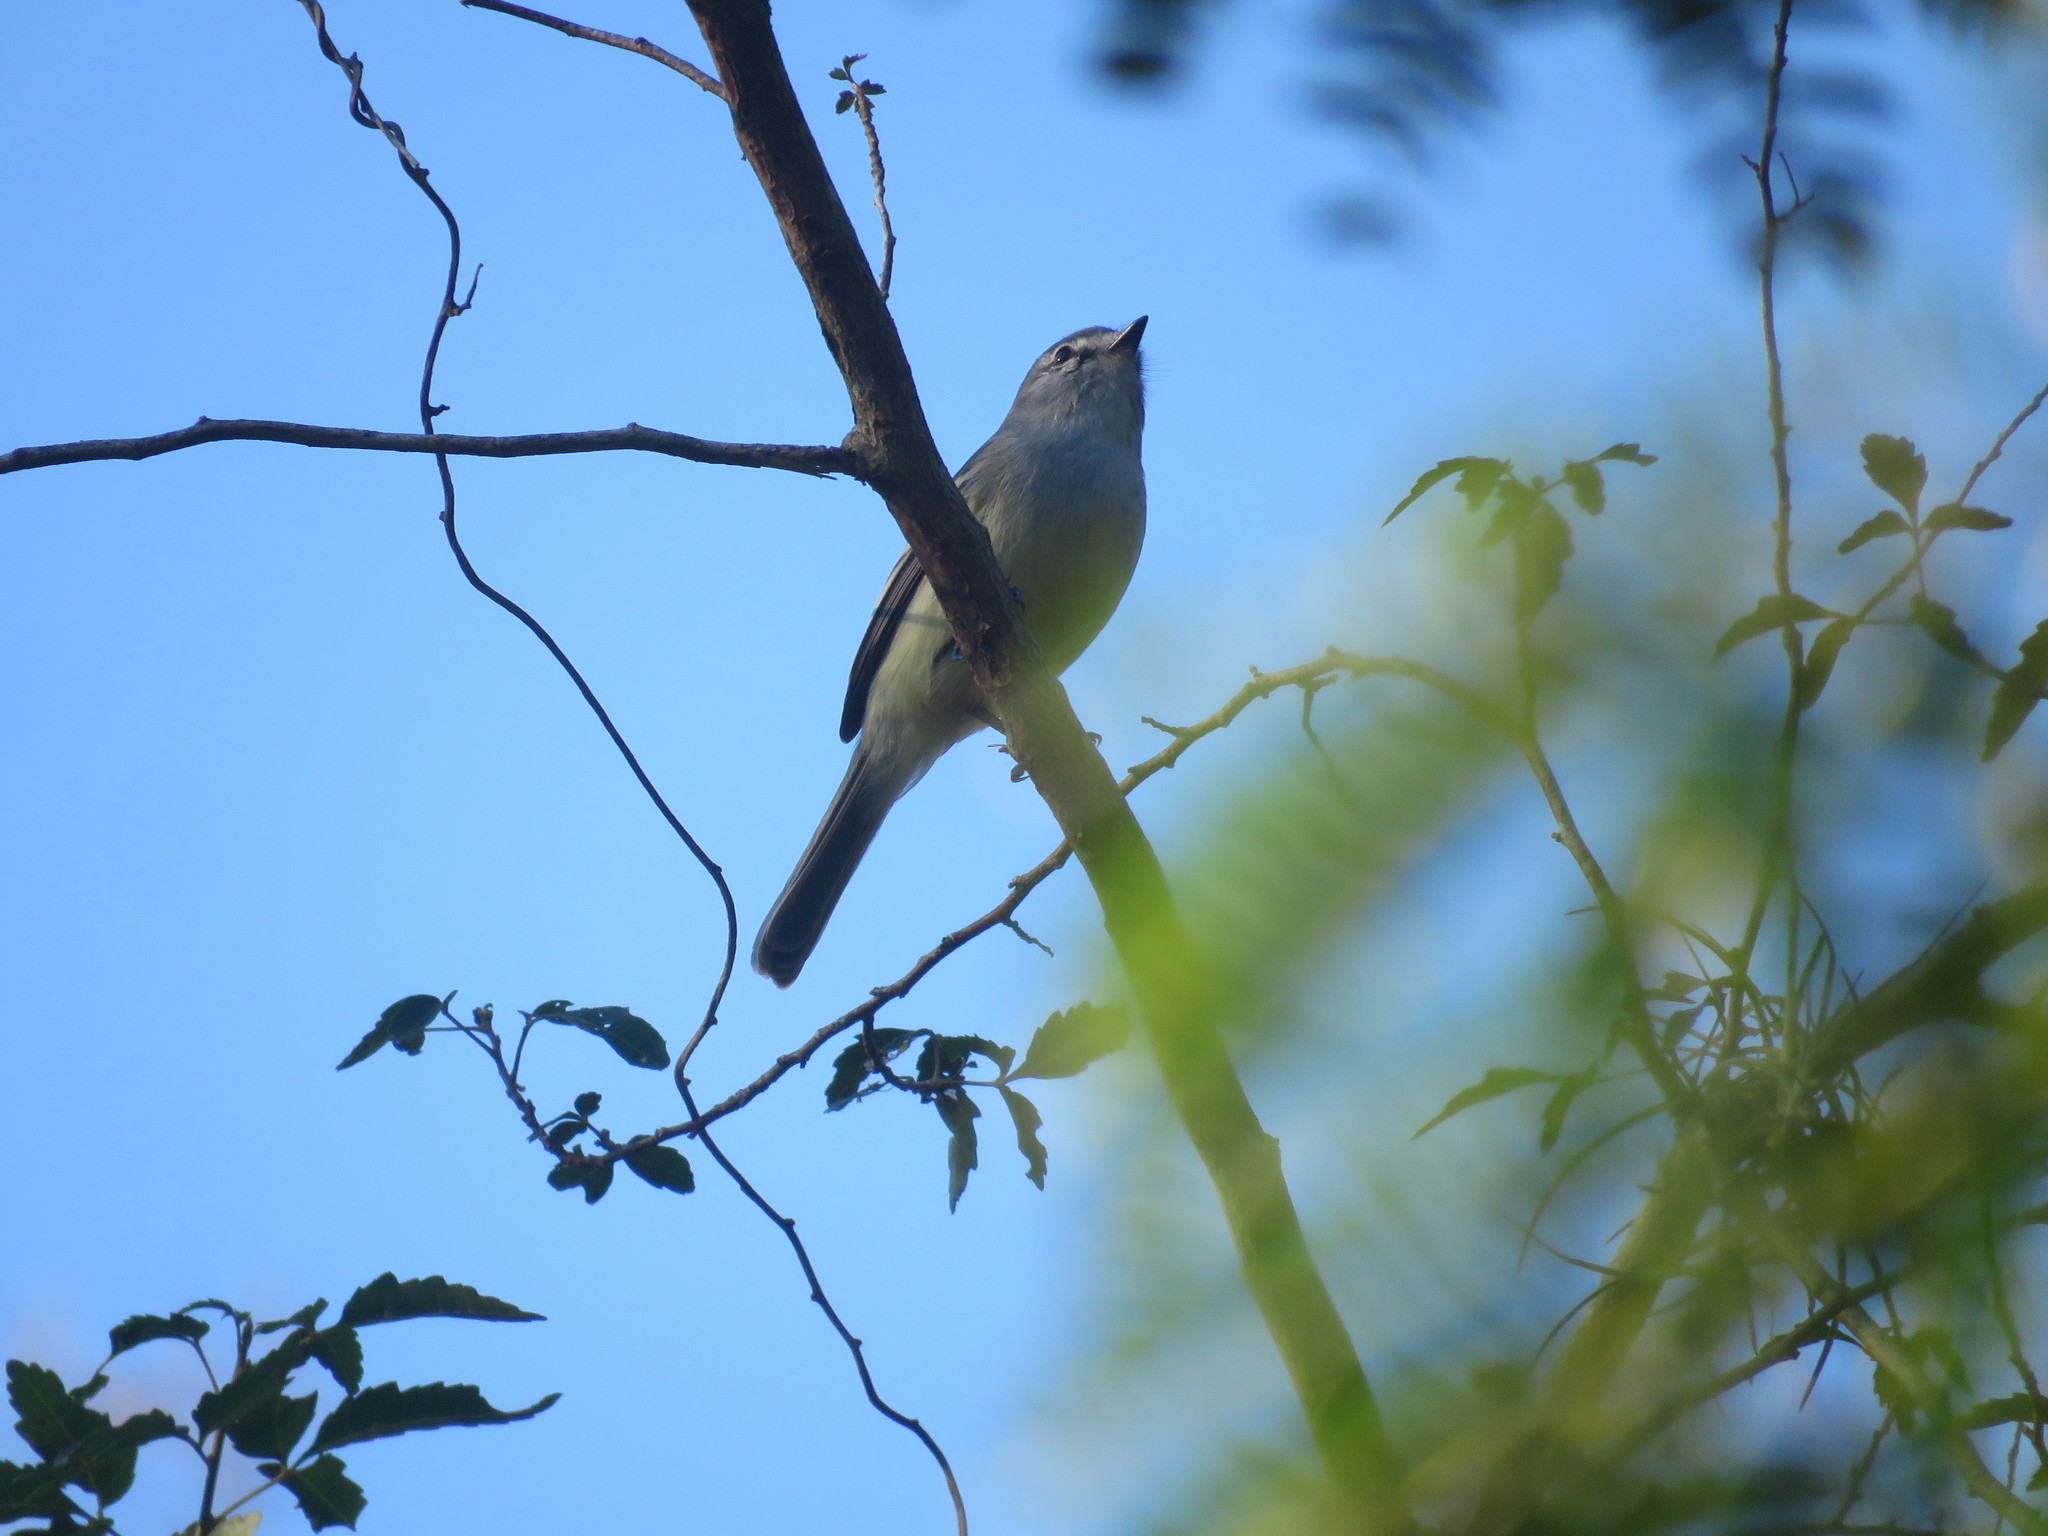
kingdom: Animalia
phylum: Chordata
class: Aves
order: Passeriformes
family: Tyrannidae
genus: Serpophaga
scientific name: Serpophaga subcristata
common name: White-crested tyrannulet
